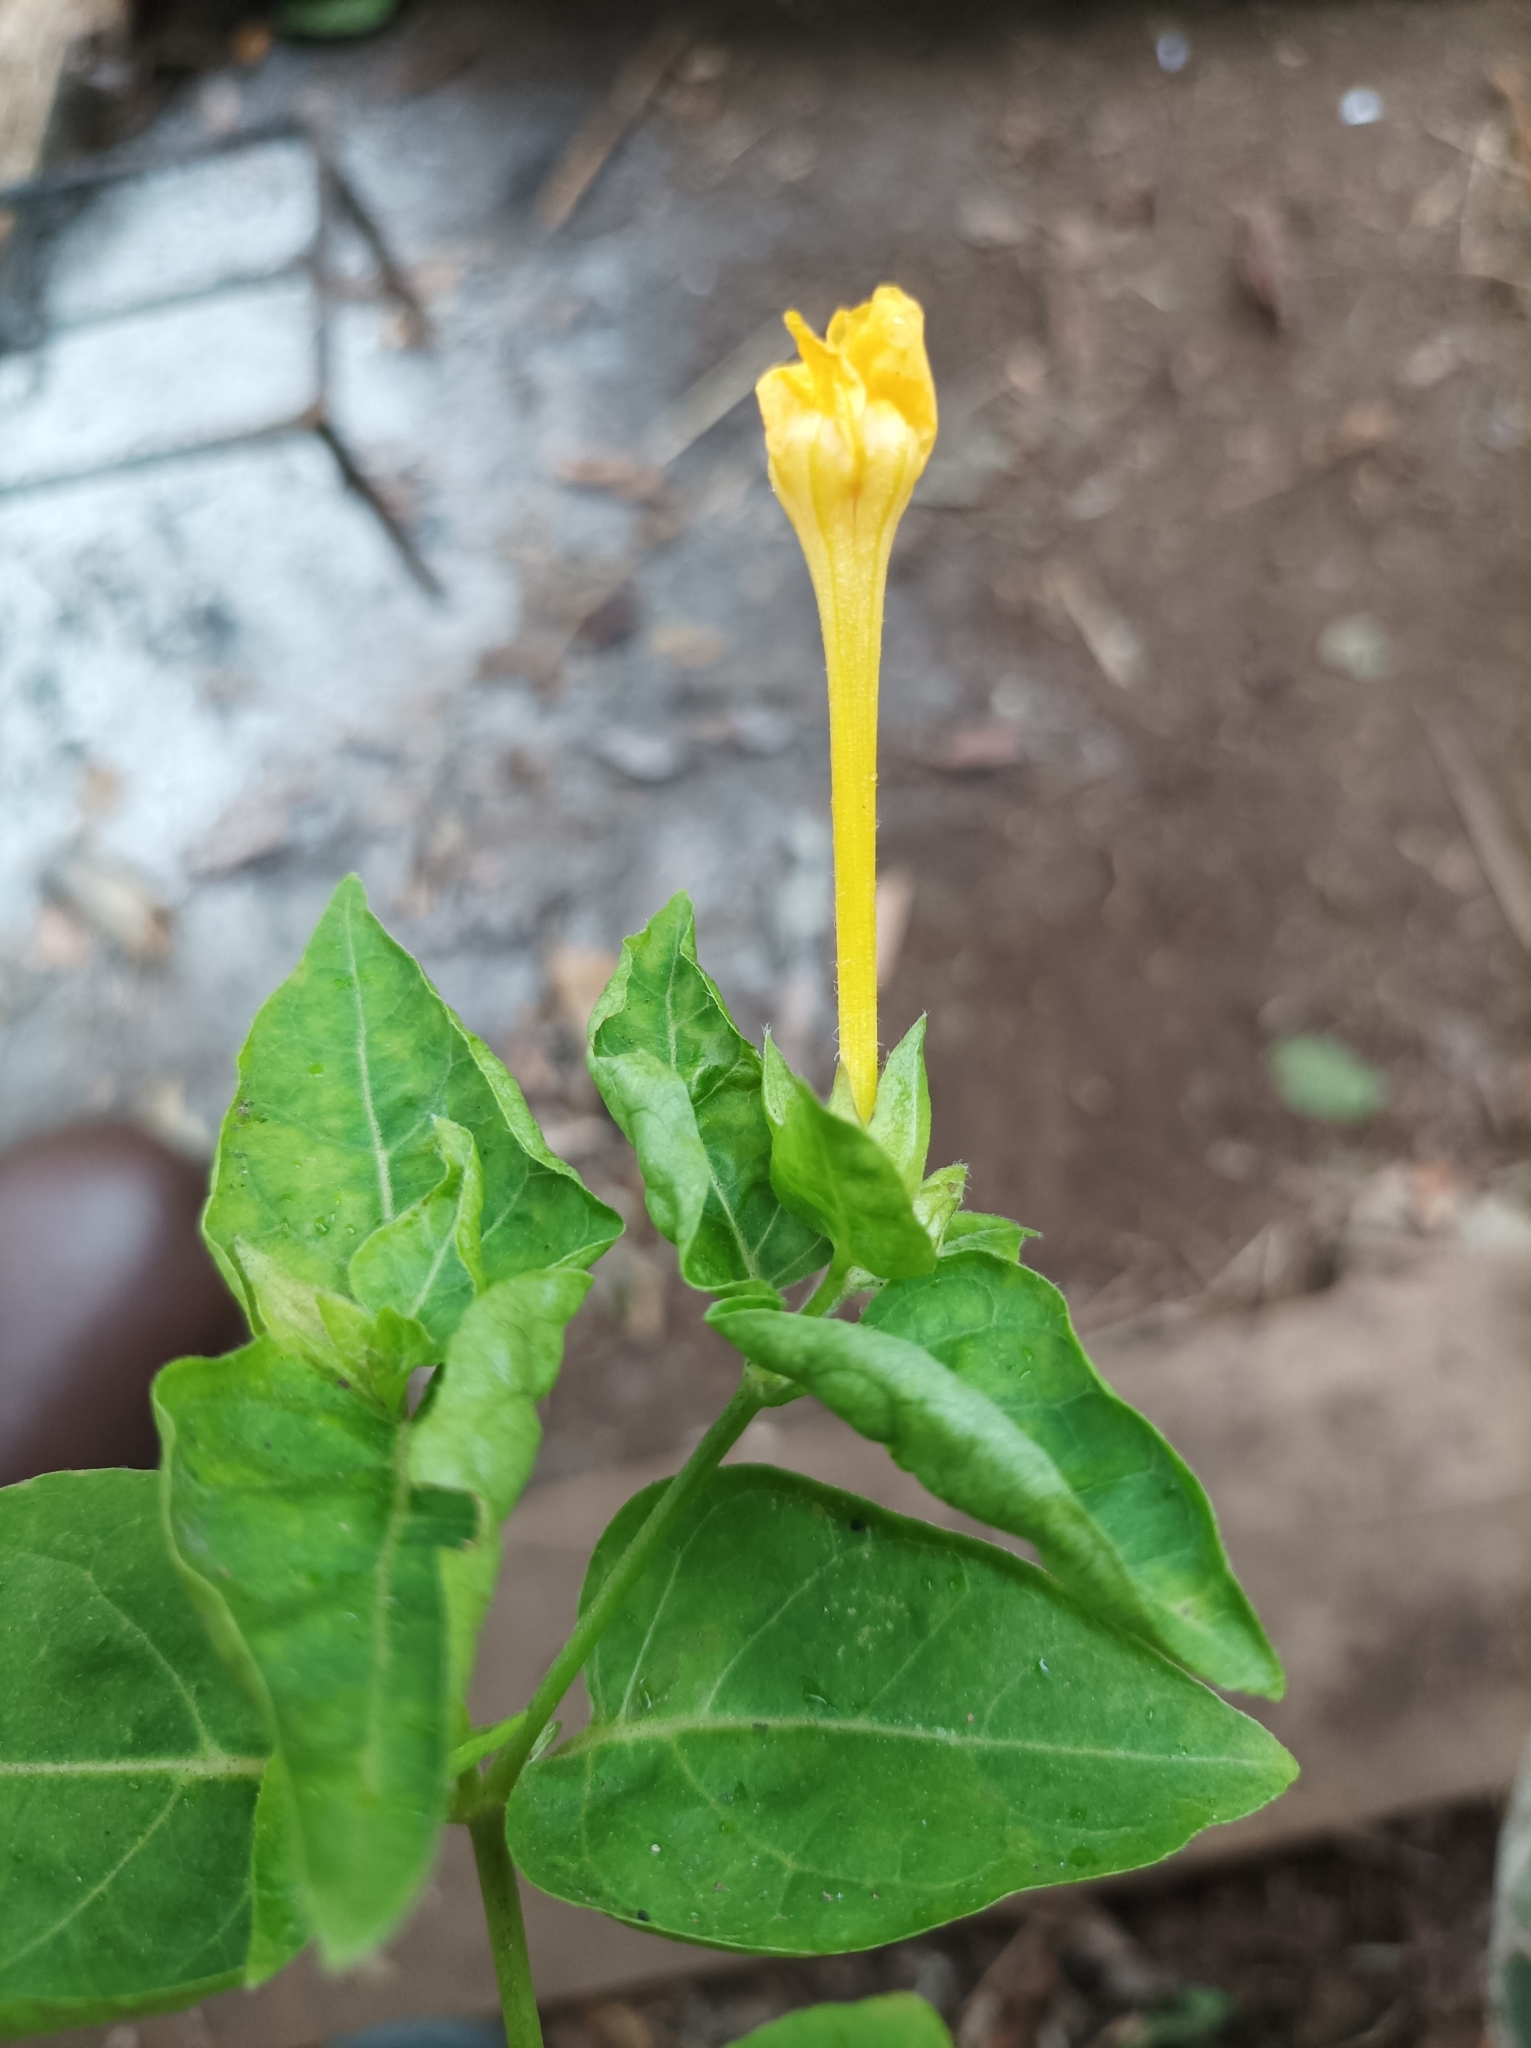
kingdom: Plantae
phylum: Tracheophyta
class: Magnoliopsida
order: Caryophyllales
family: Nyctaginaceae
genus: Mirabilis
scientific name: Mirabilis jalapa
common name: Marvel-of-peru
